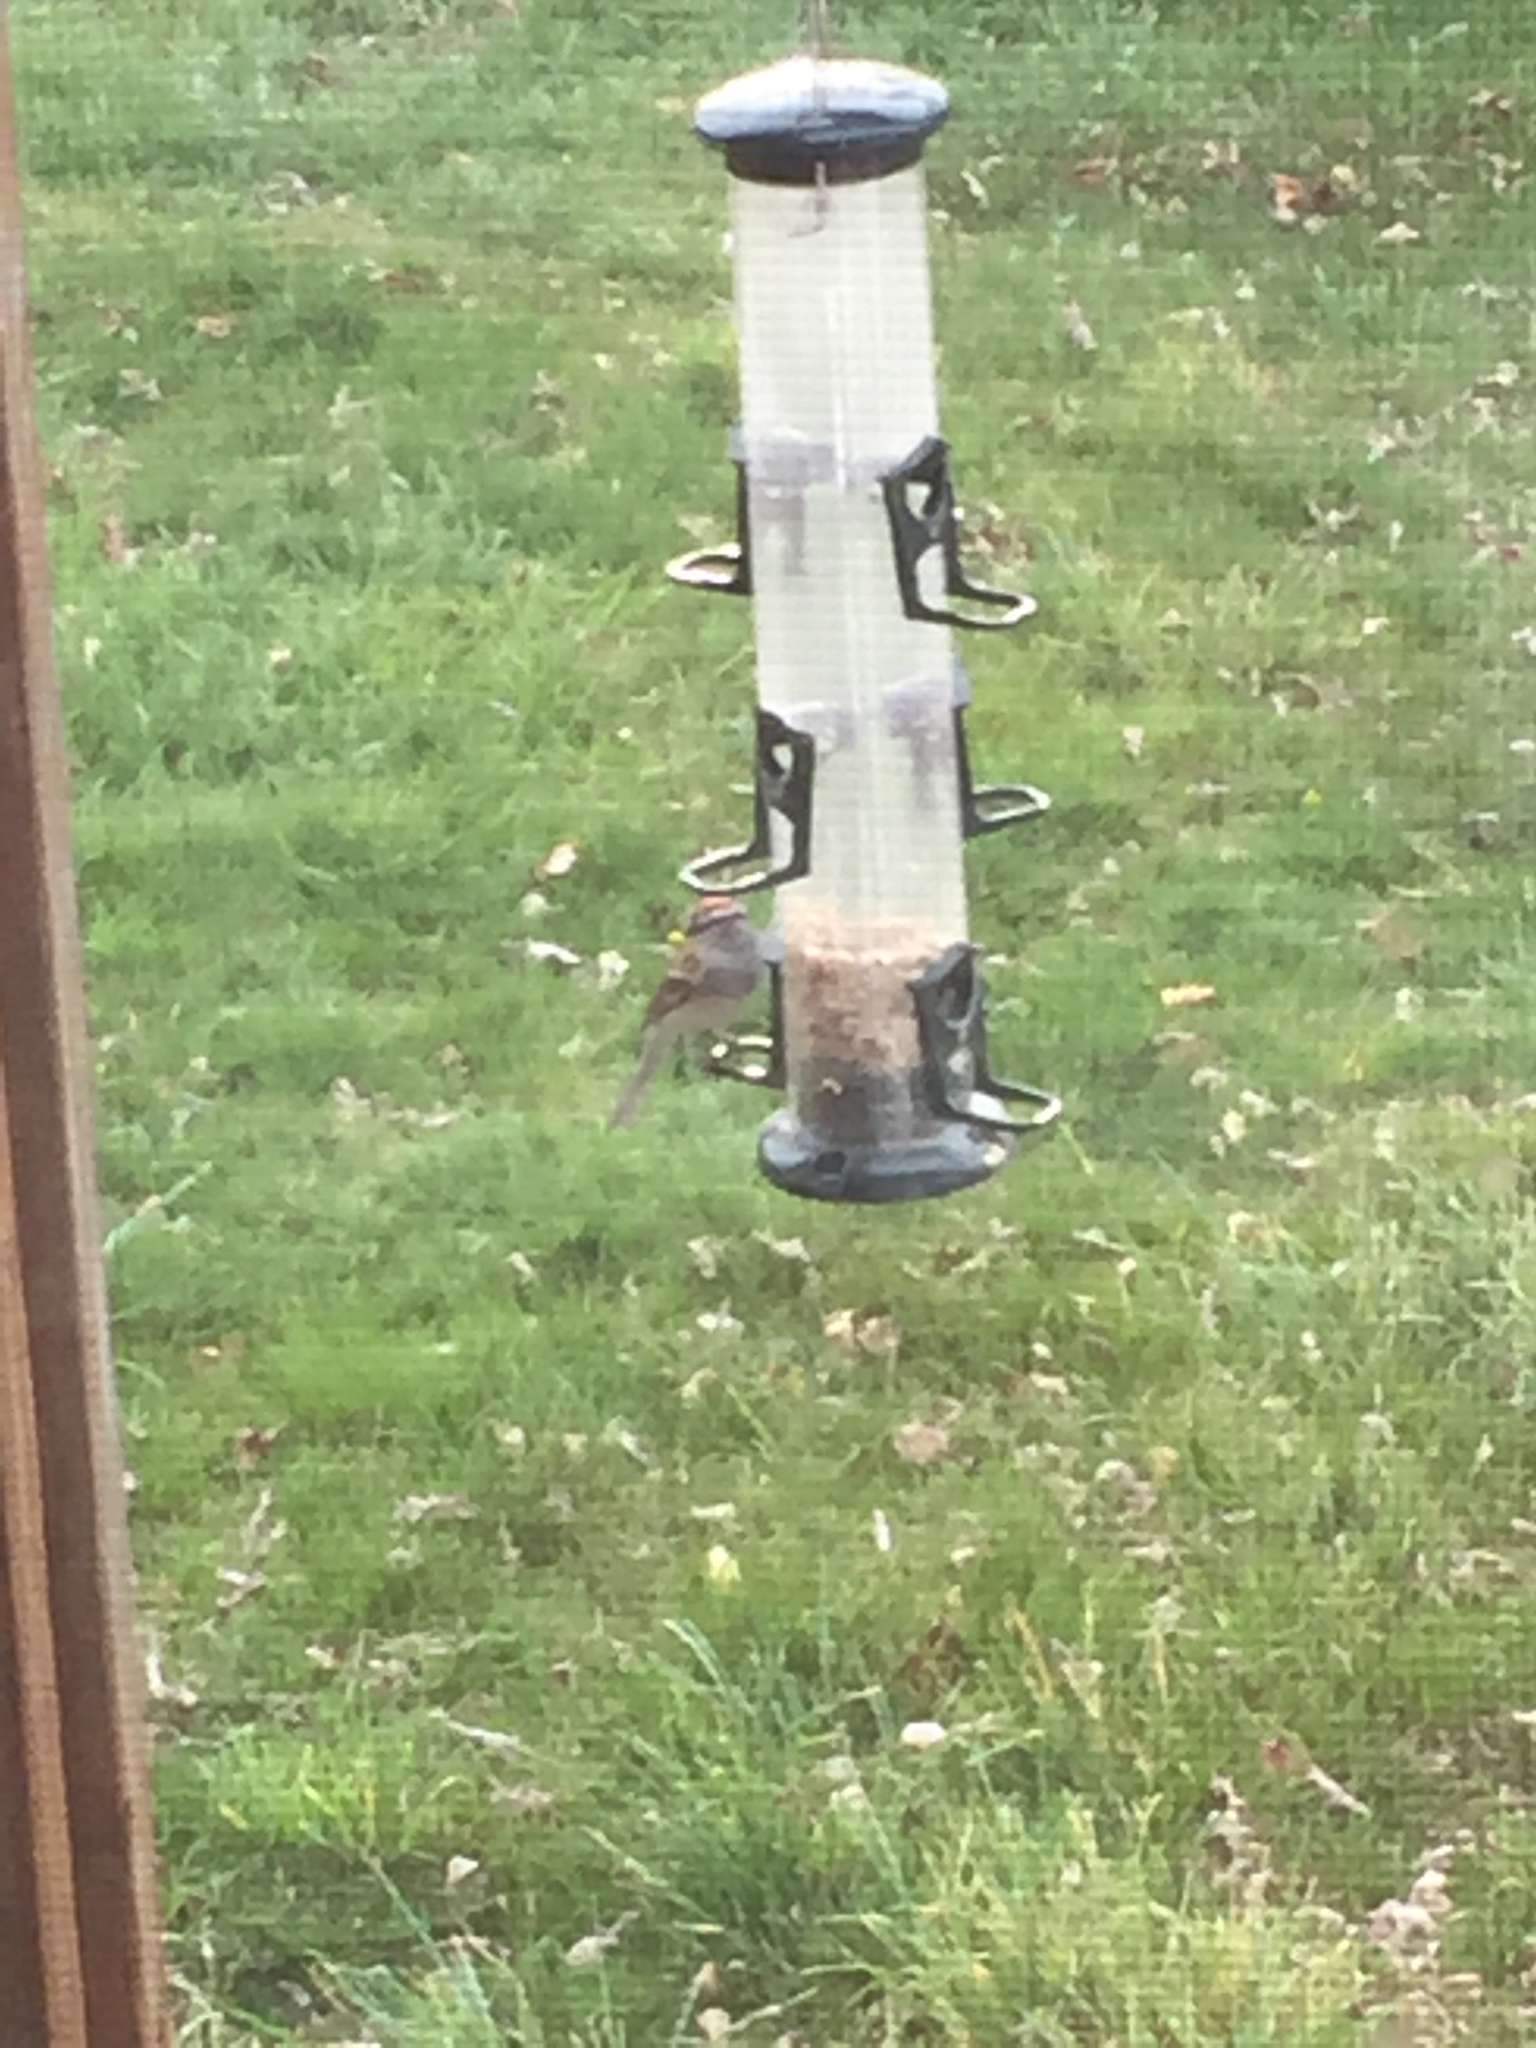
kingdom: Animalia
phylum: Chordata
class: Aves
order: Passeriformes
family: Passerellidae
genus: Spizella
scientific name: Spizella passerina
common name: Chipping sparrow
